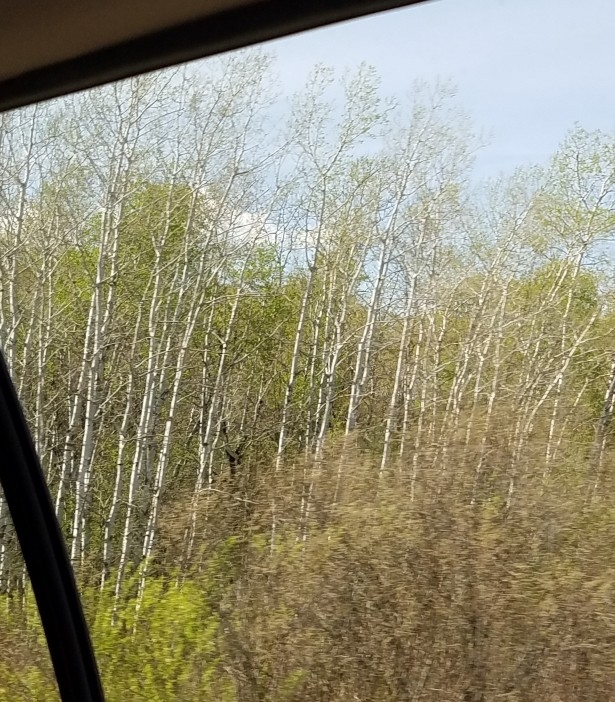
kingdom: Plantae
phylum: Tracheophyta
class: Magnoliopsida
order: Malpighiales
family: Salicaceae
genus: Populus
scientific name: Populus tremuloides
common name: Quaking aspen
